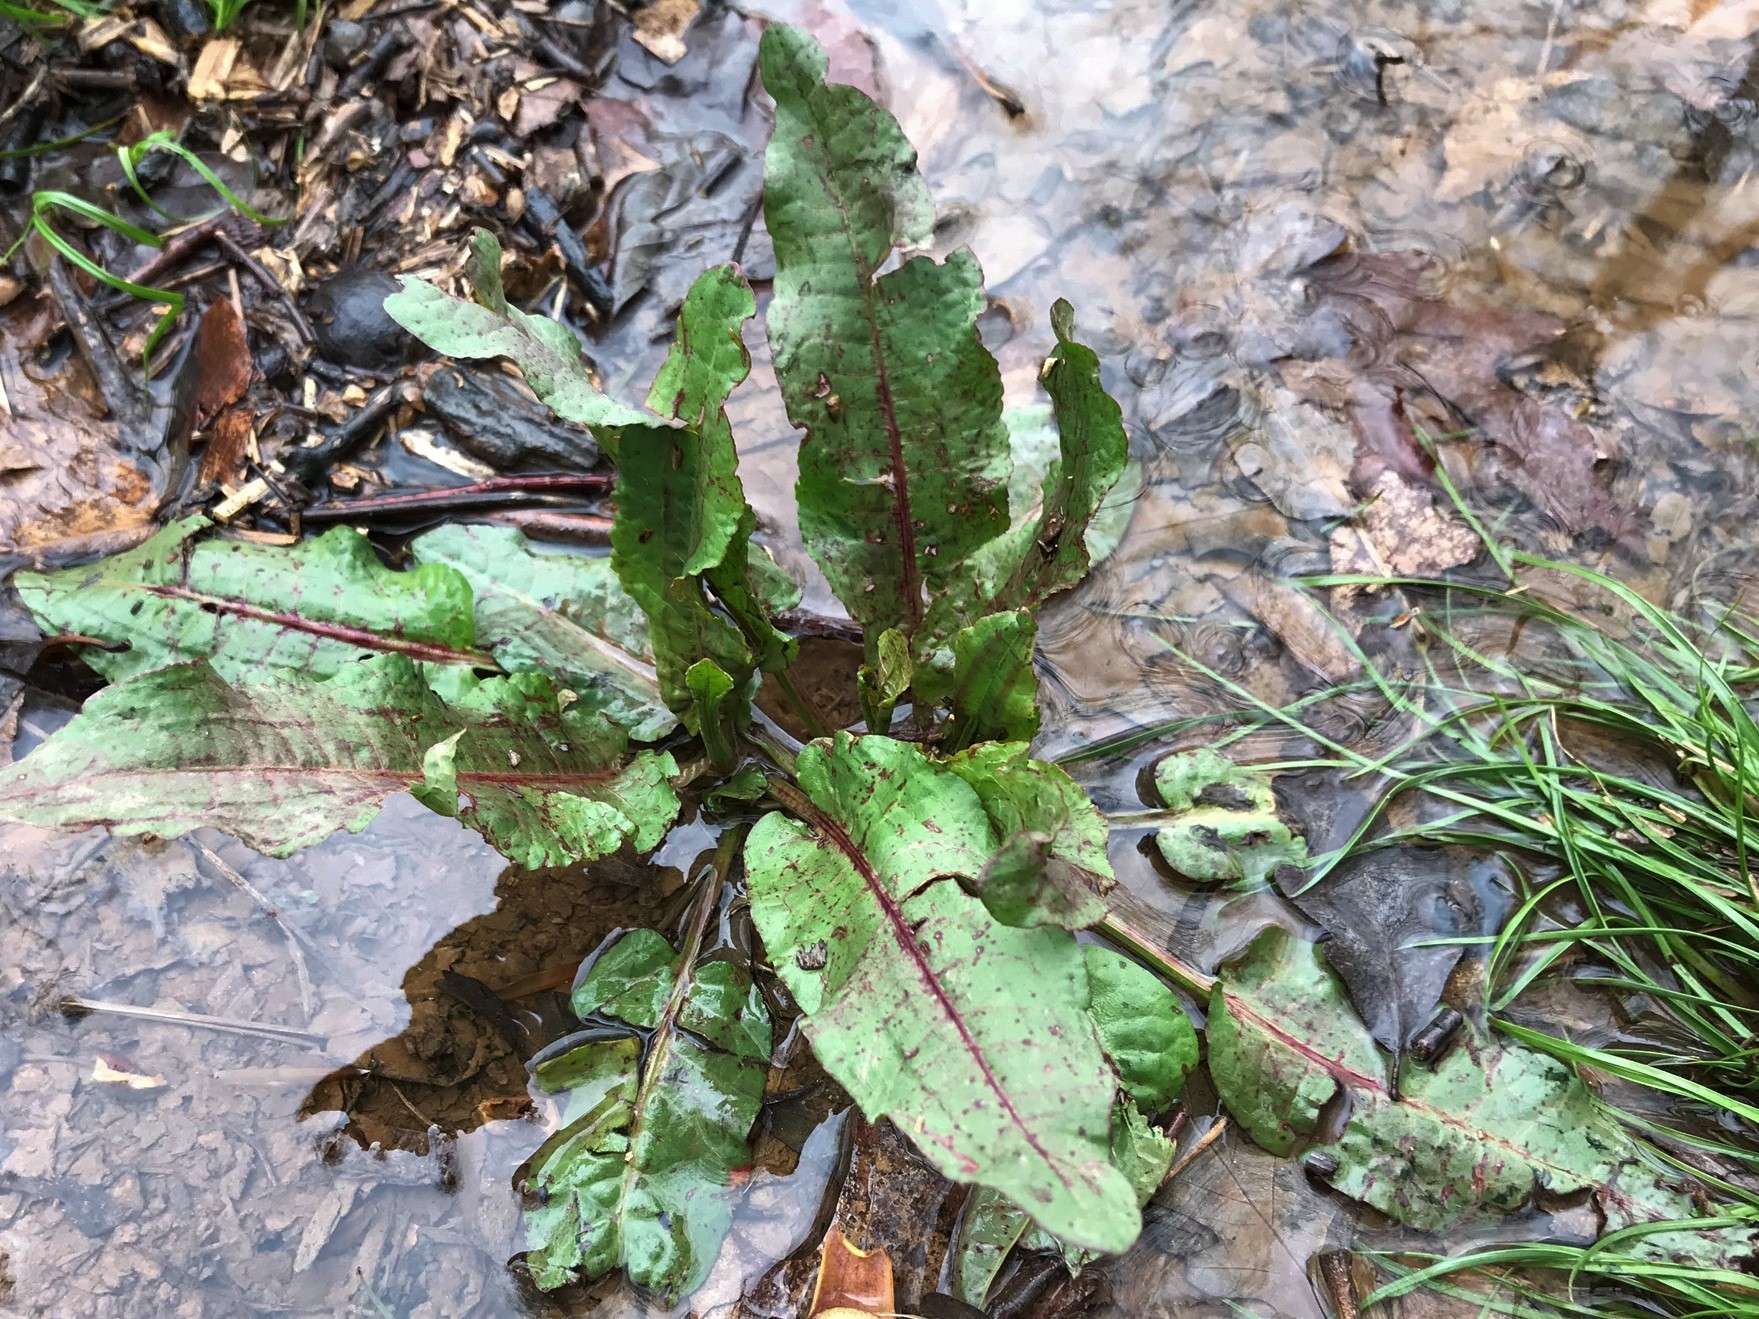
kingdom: Plantae
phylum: Tracheophyta
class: Magnoliopsida
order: Caryophyllales
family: Polygonaceae
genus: Rumex
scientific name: Rumex obtusifolius
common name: Bitter dock
